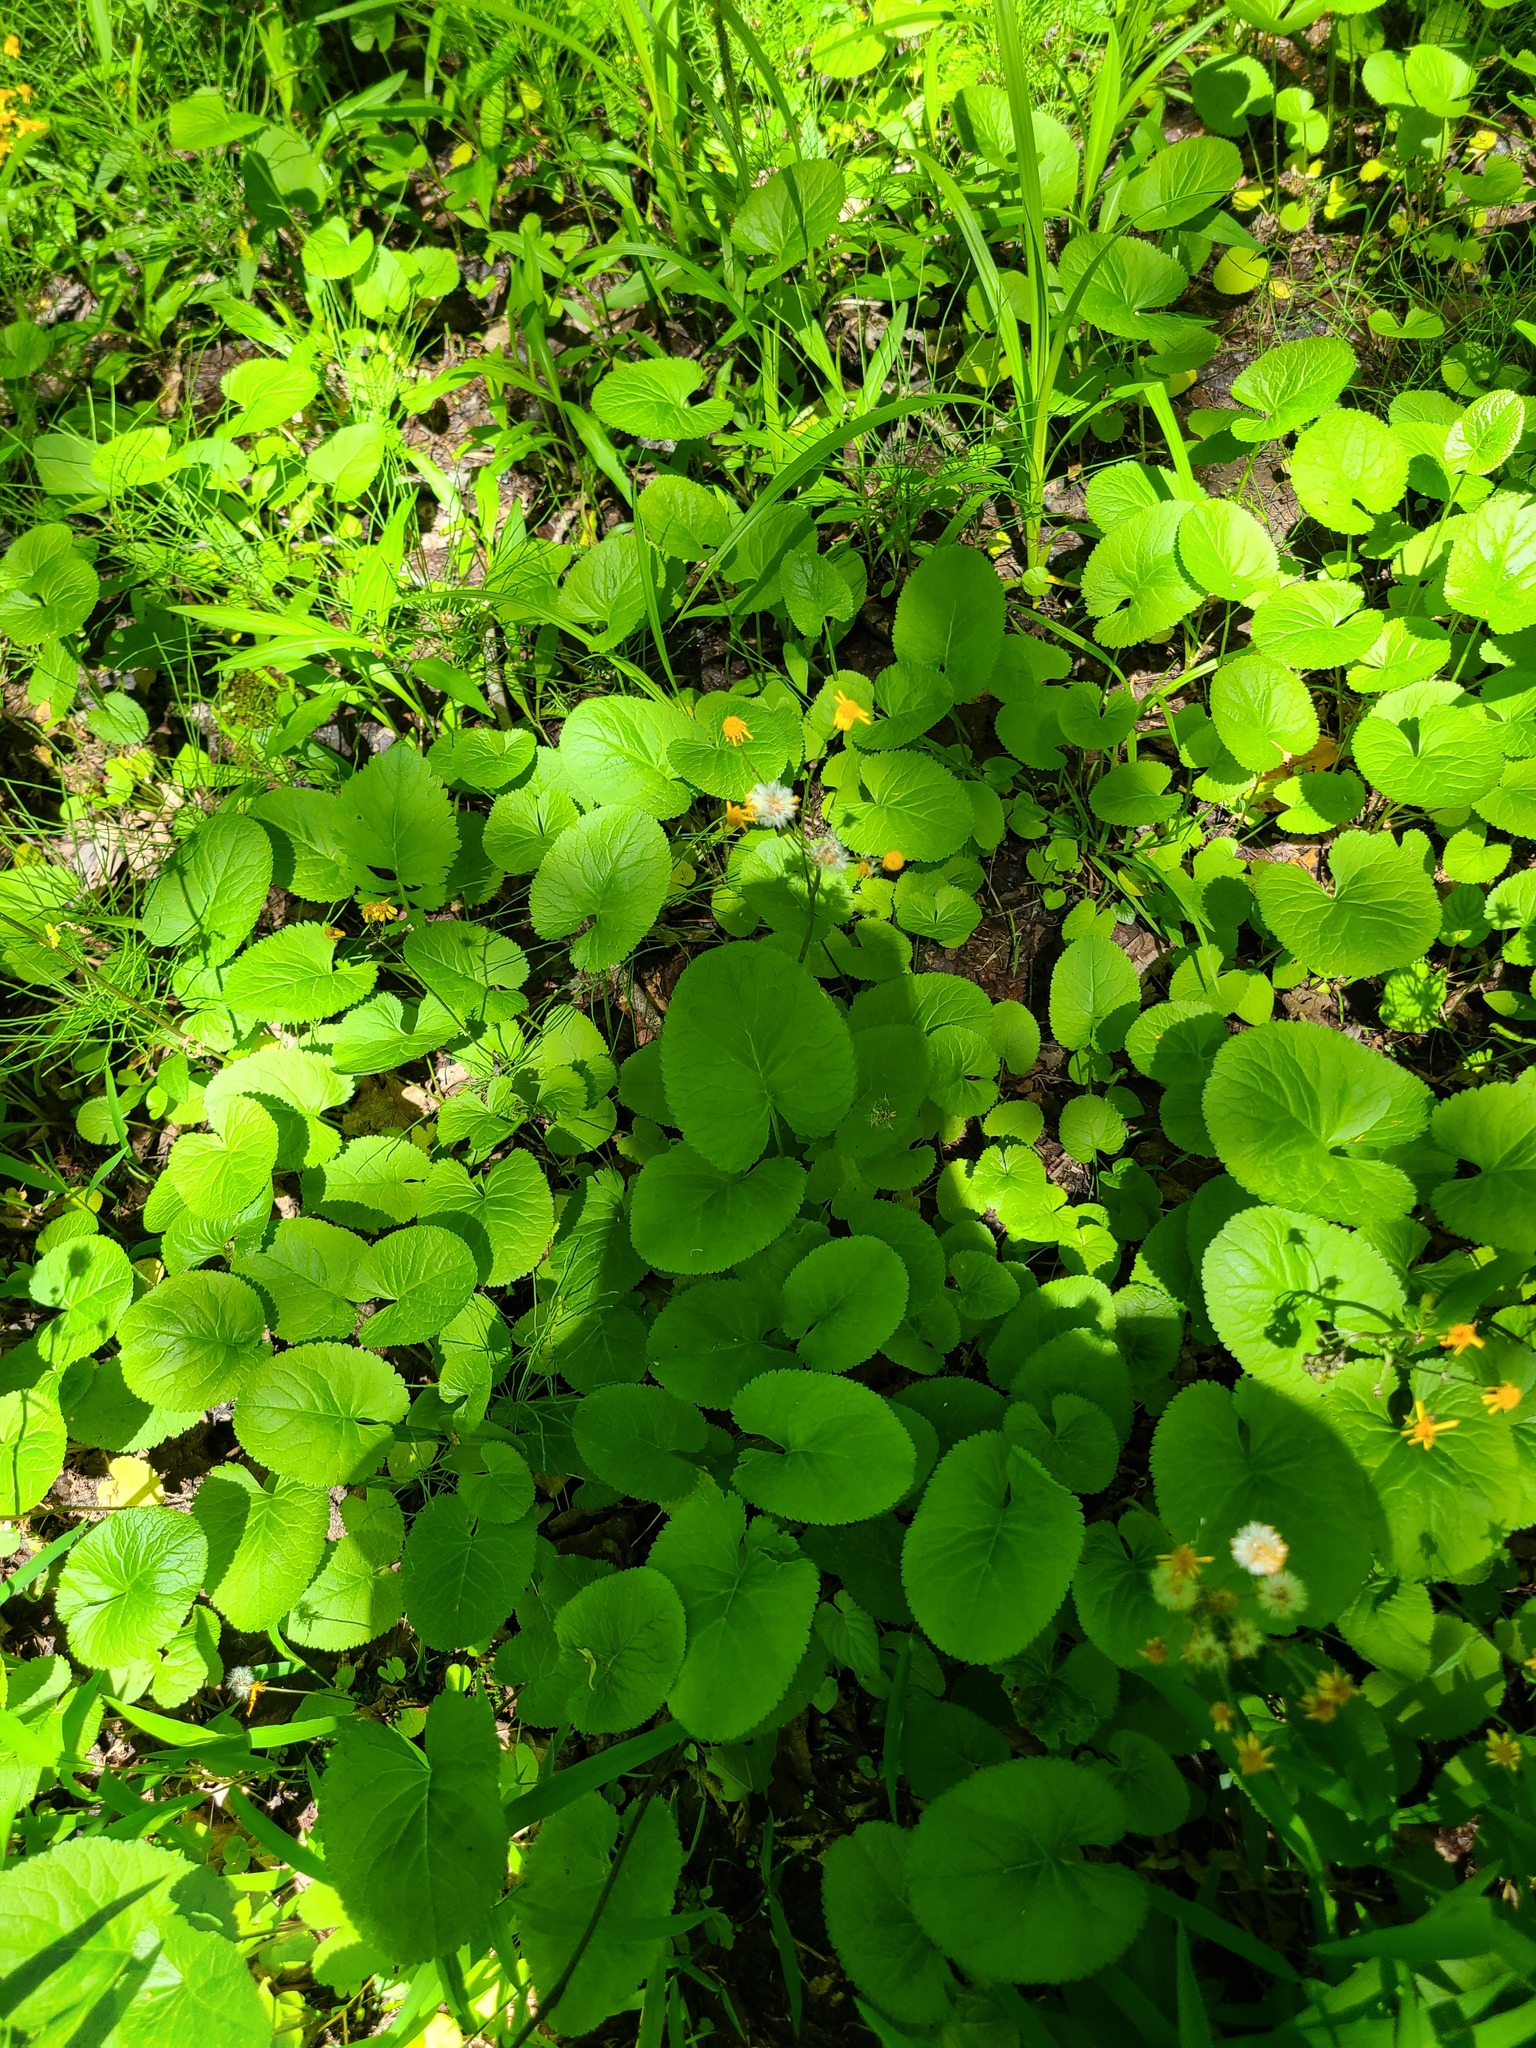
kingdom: Plantae
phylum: Tracheophyta
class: Magnoliopsida
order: Asterales
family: Asteraceae
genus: Packera
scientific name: Packera aurea
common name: Golden groundsel
